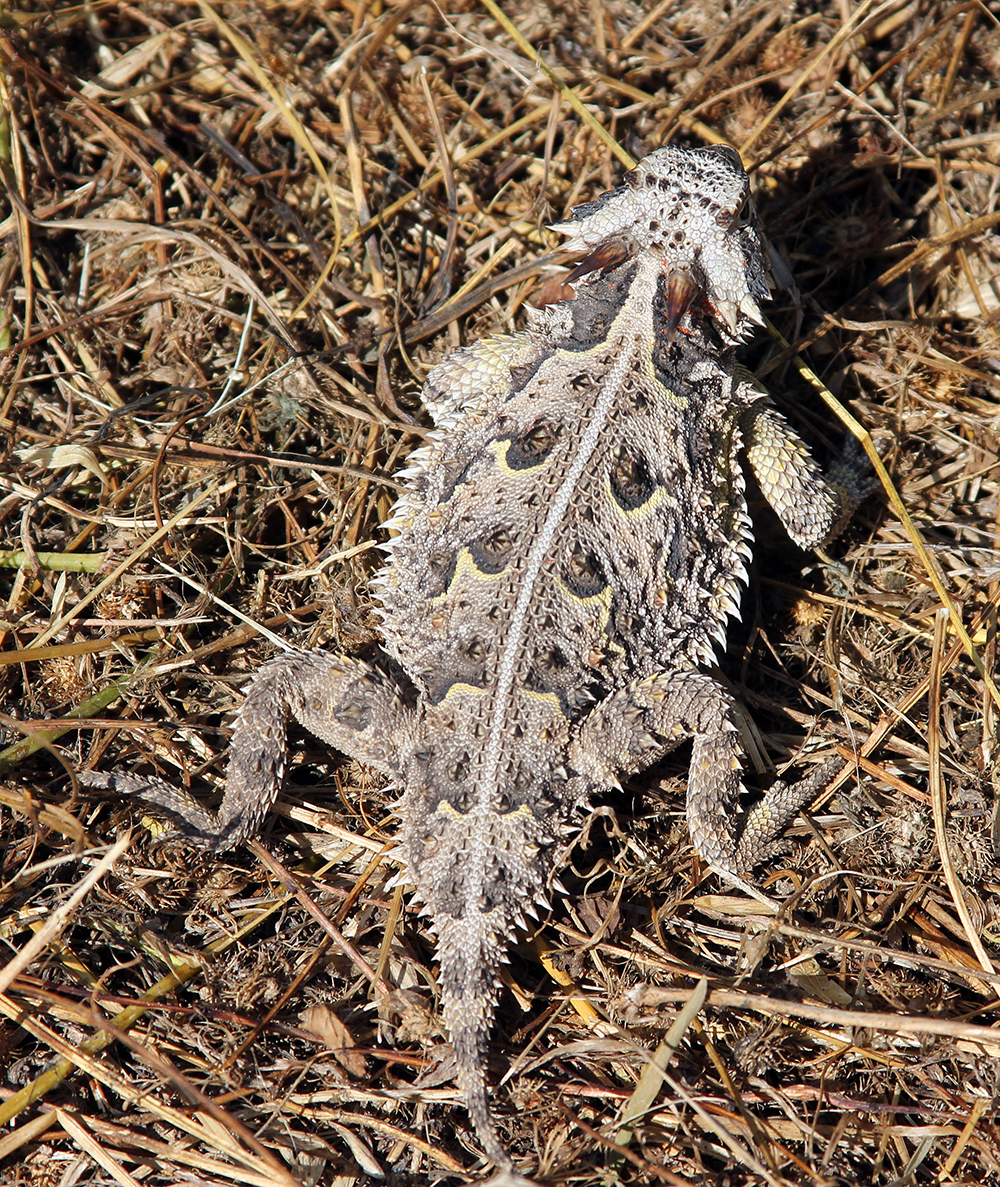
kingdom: Animalia
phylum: Chordata
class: Squamata
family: Phrynosomatidae
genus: Phrynosoma
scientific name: Phrynosoma cornutum
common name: Texas horned lizard
